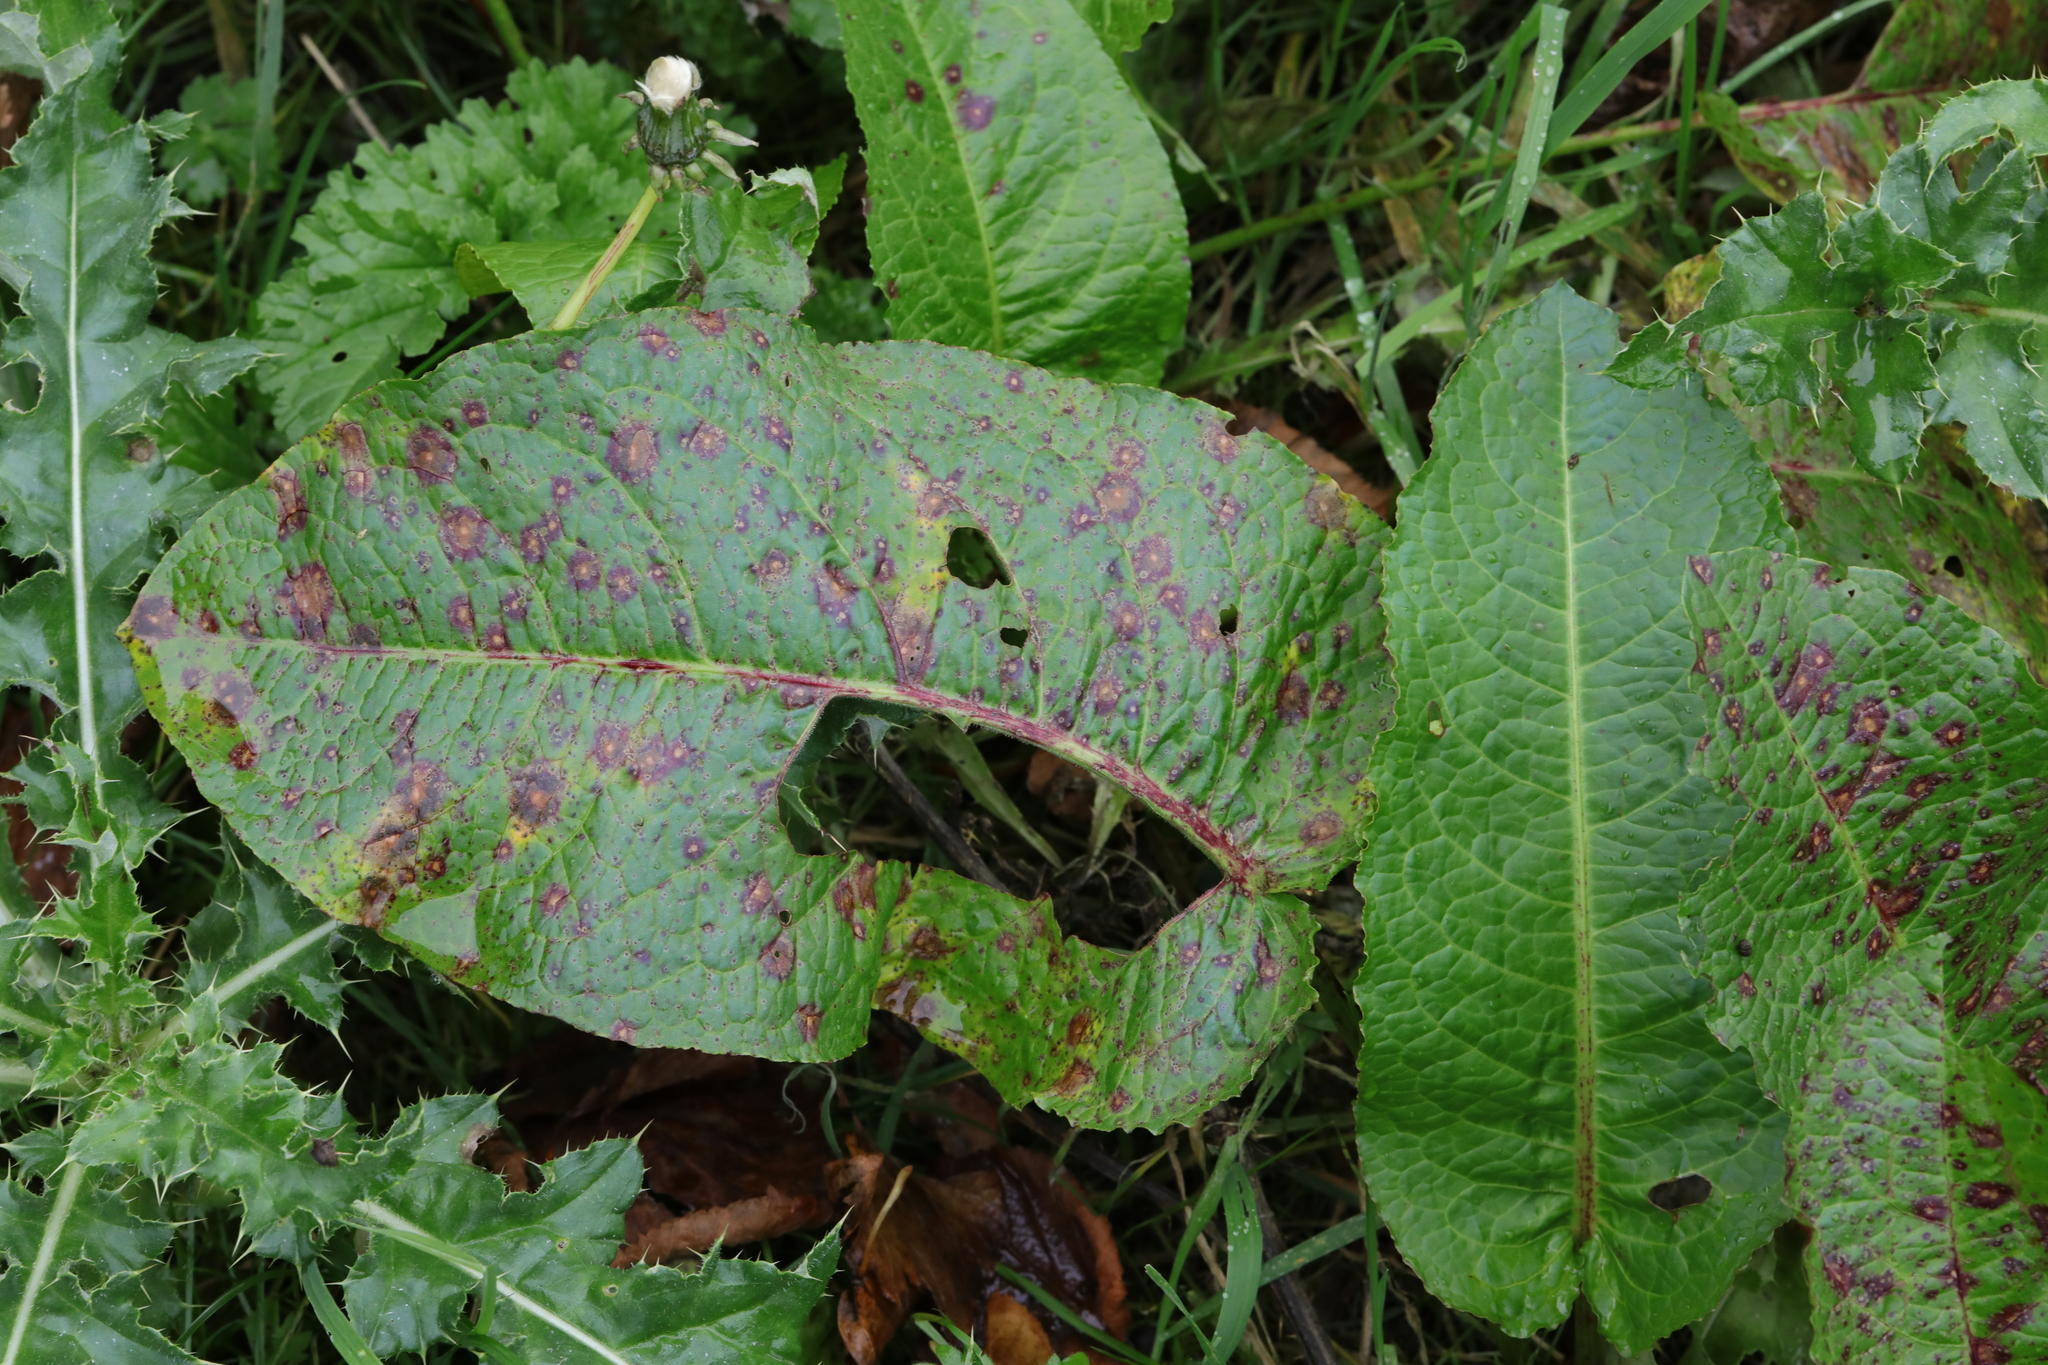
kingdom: Plantae
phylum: Tracheophyta
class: Magnoliopsida
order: Caryophyllales
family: Polygonaceae
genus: Rumex
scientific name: Rumex obtusifolius
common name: Bitter dock
